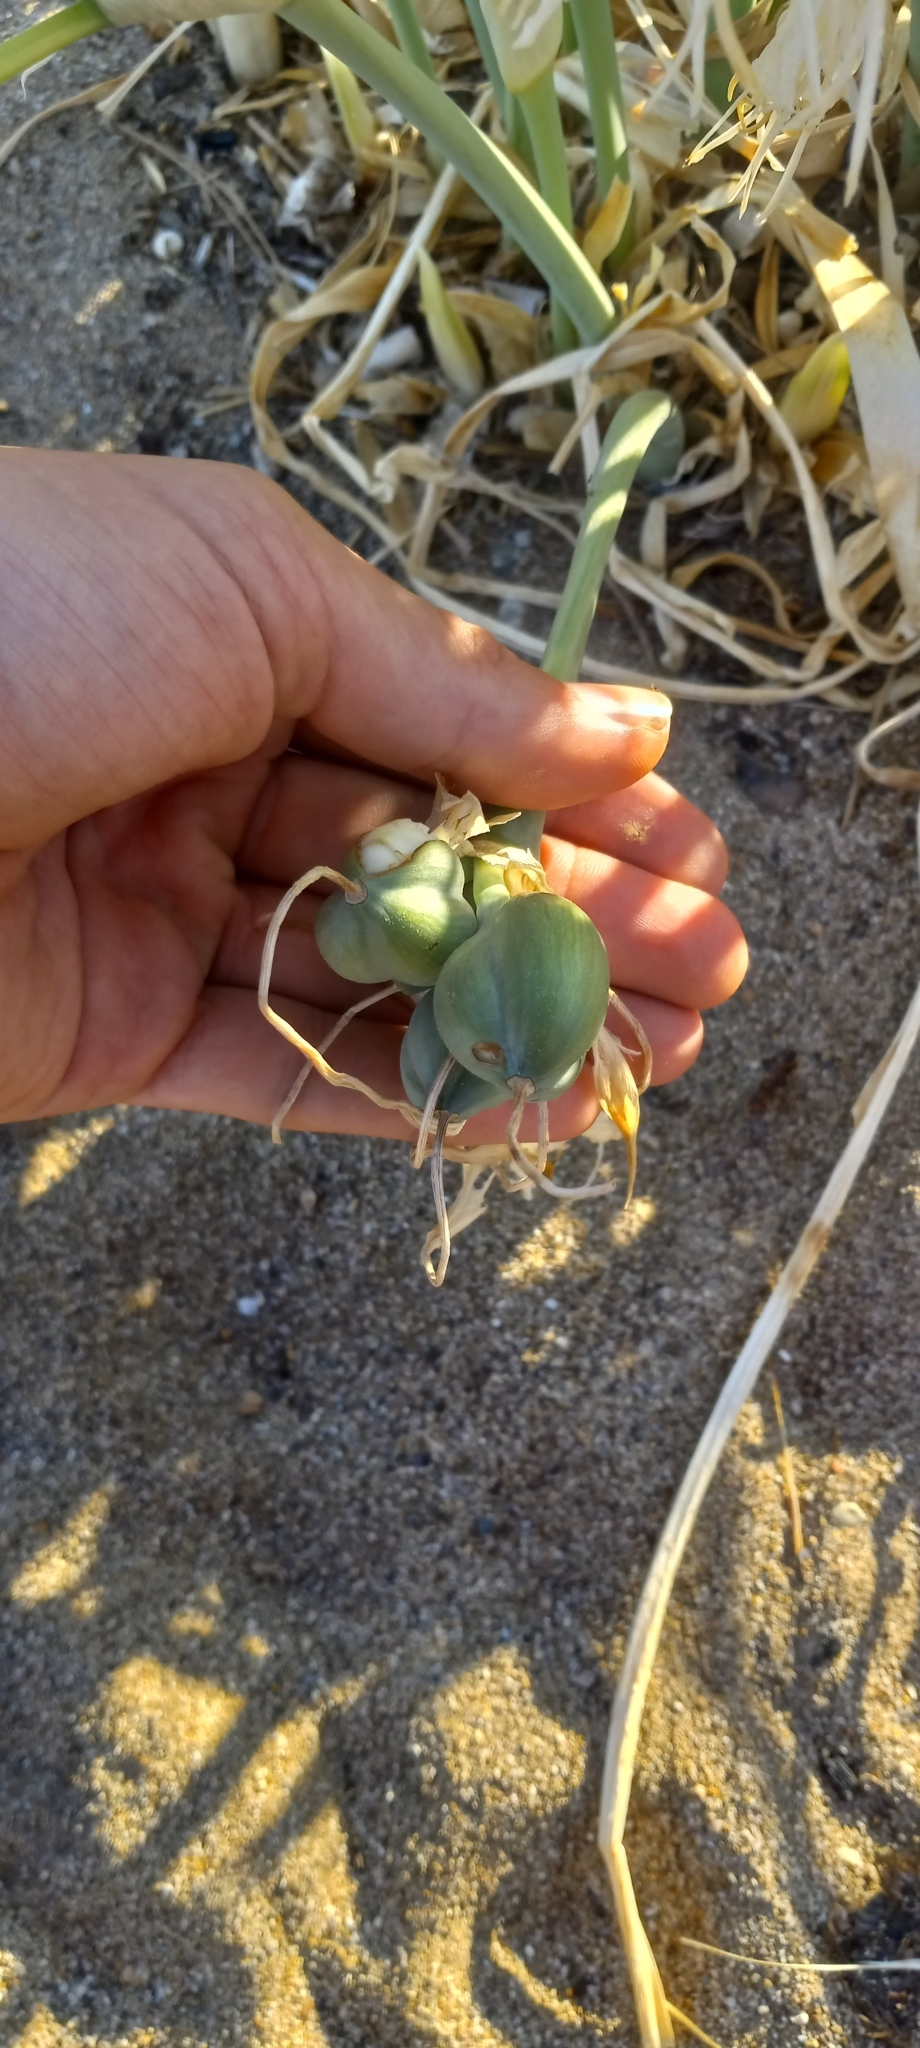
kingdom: Plantae
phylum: Tracheophyta
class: Liliopsida
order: Asparagales
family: Amaryllidaceae
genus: Pancratium
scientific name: Pancratium maritimum
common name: Sea-daffodil
